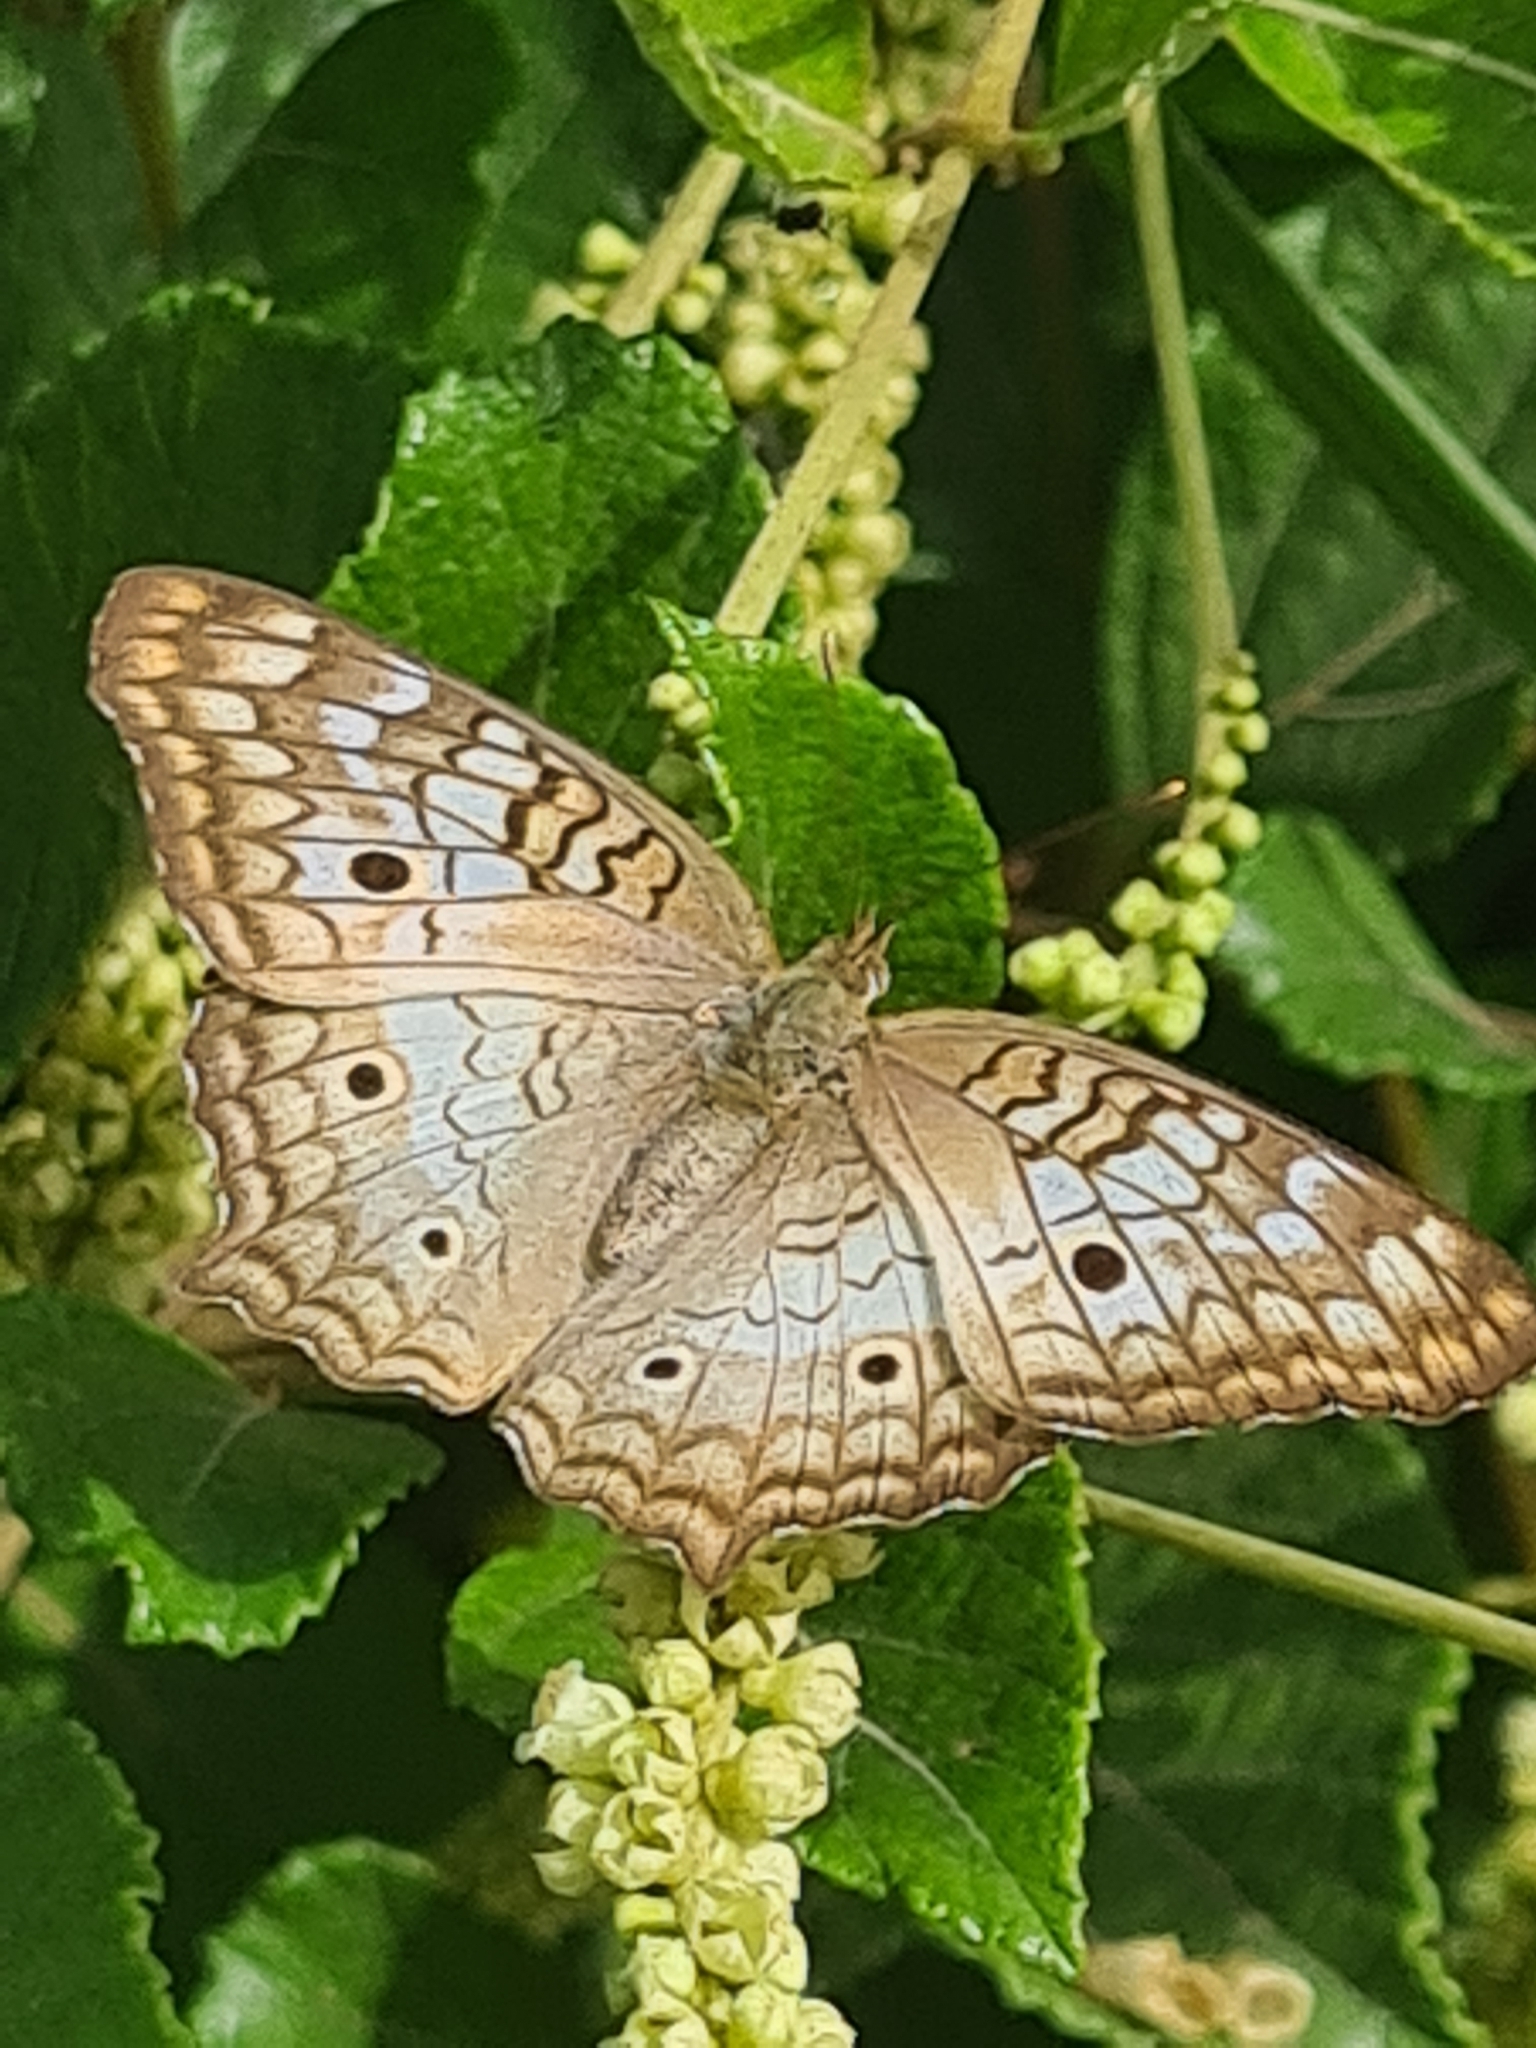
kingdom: Animalia
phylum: Arthropoda
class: Insecta
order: Lepidoptera
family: Nymphalidae
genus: Anartia
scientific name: Anartia jatrophae
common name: White peacock
